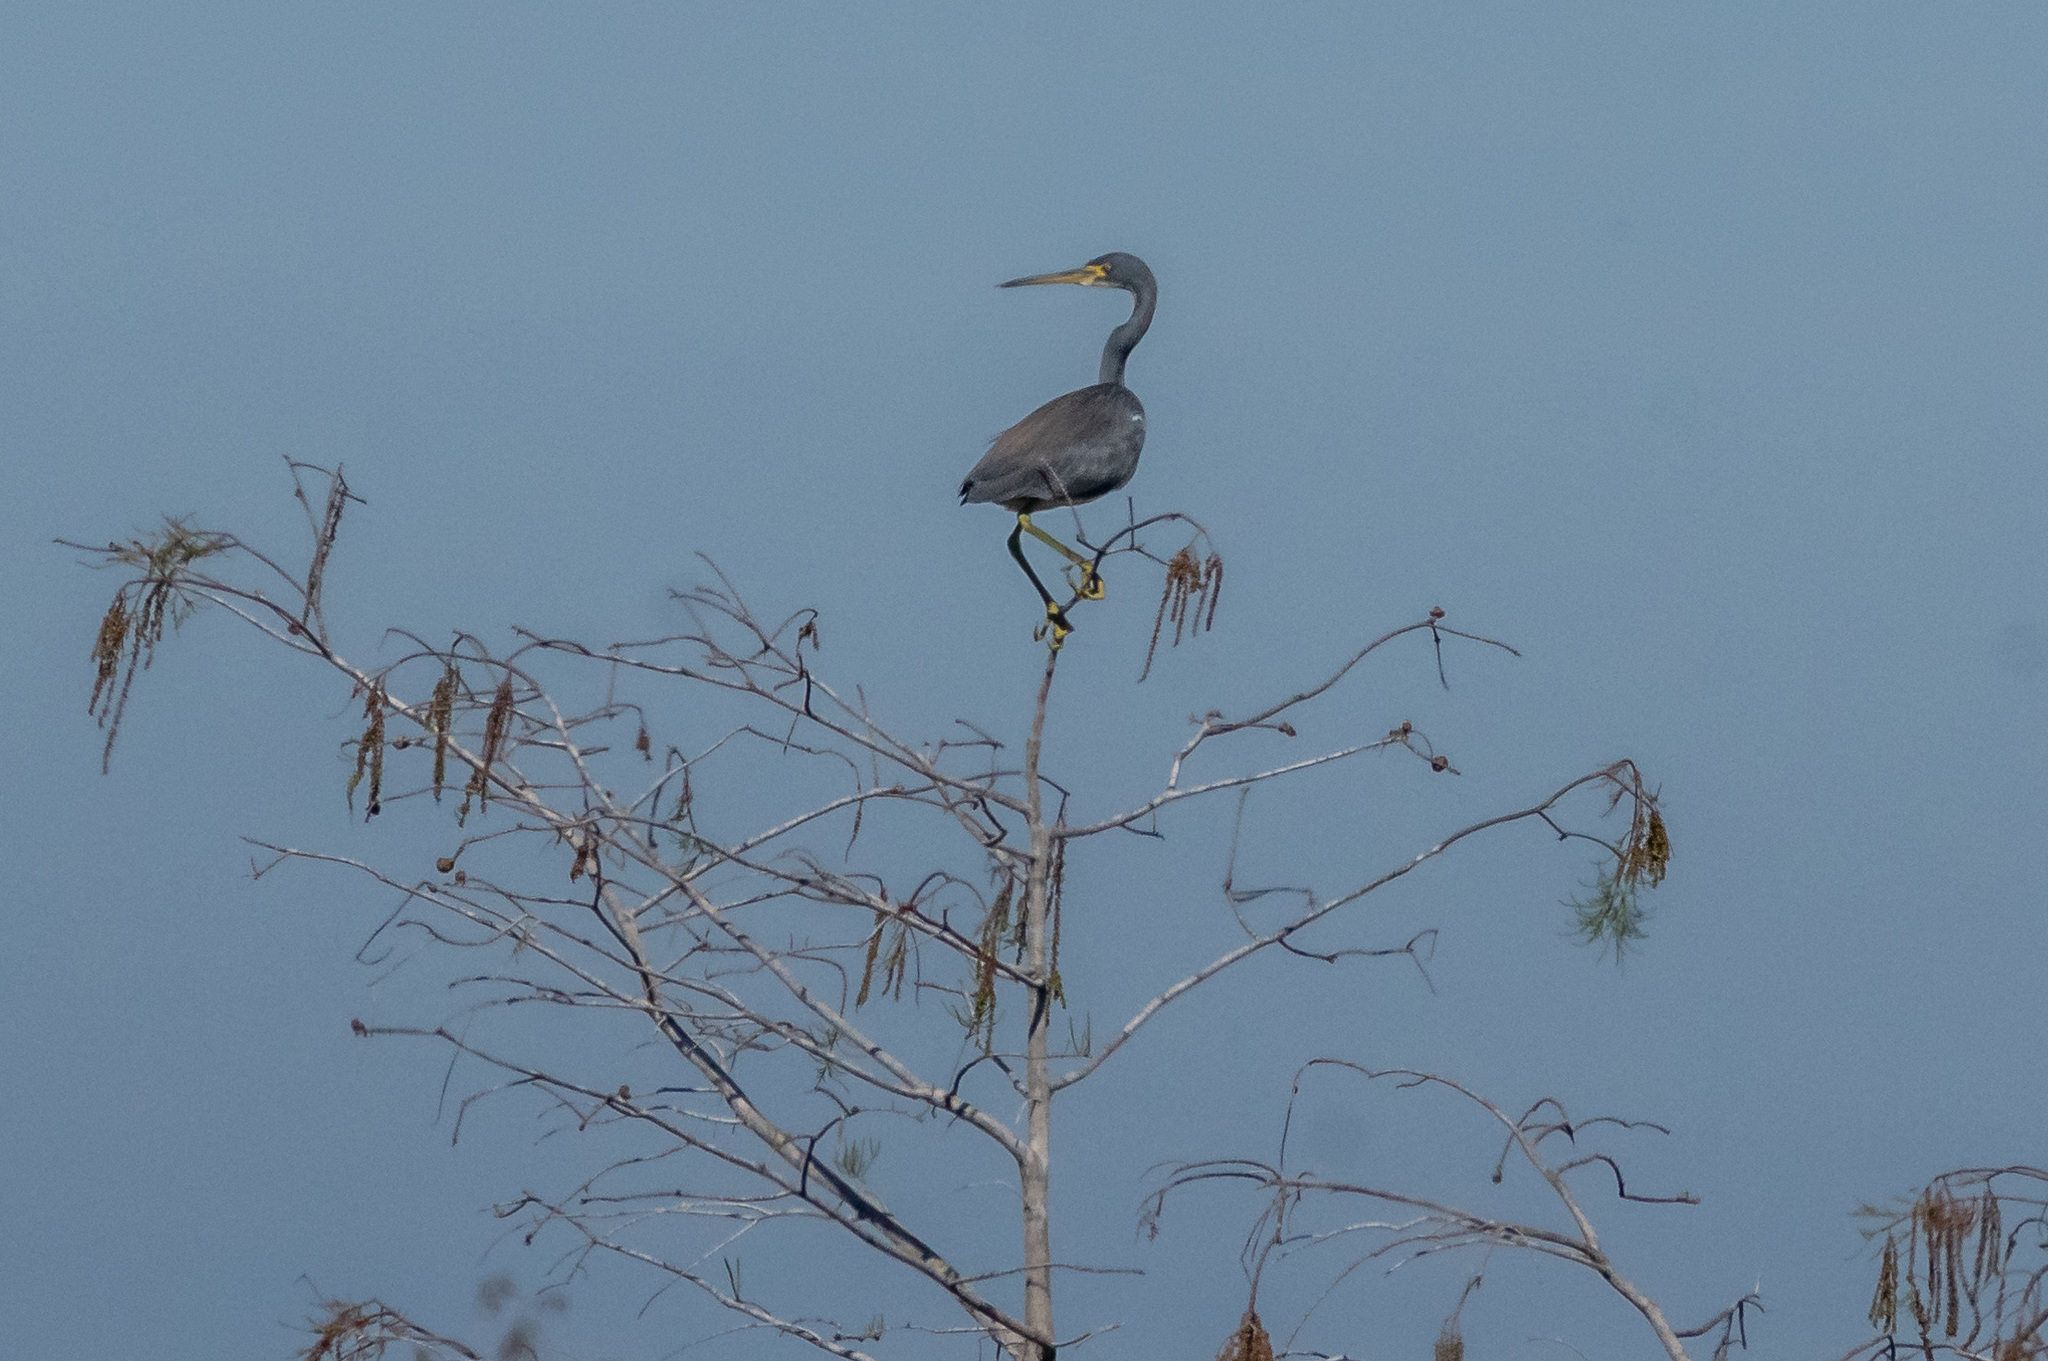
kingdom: Animalia
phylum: Chordata
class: Aves
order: Pelecaniformes
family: Ardeidae
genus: Egretta
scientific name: Egretta tricolor
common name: Tricolored heron
